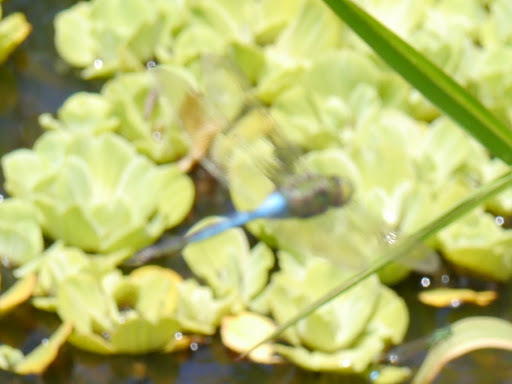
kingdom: Animalia
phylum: Arthropoda
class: Insecta
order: Odonata
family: Aeshnidae
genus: Anax
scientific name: Anax junius
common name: Common green darner
